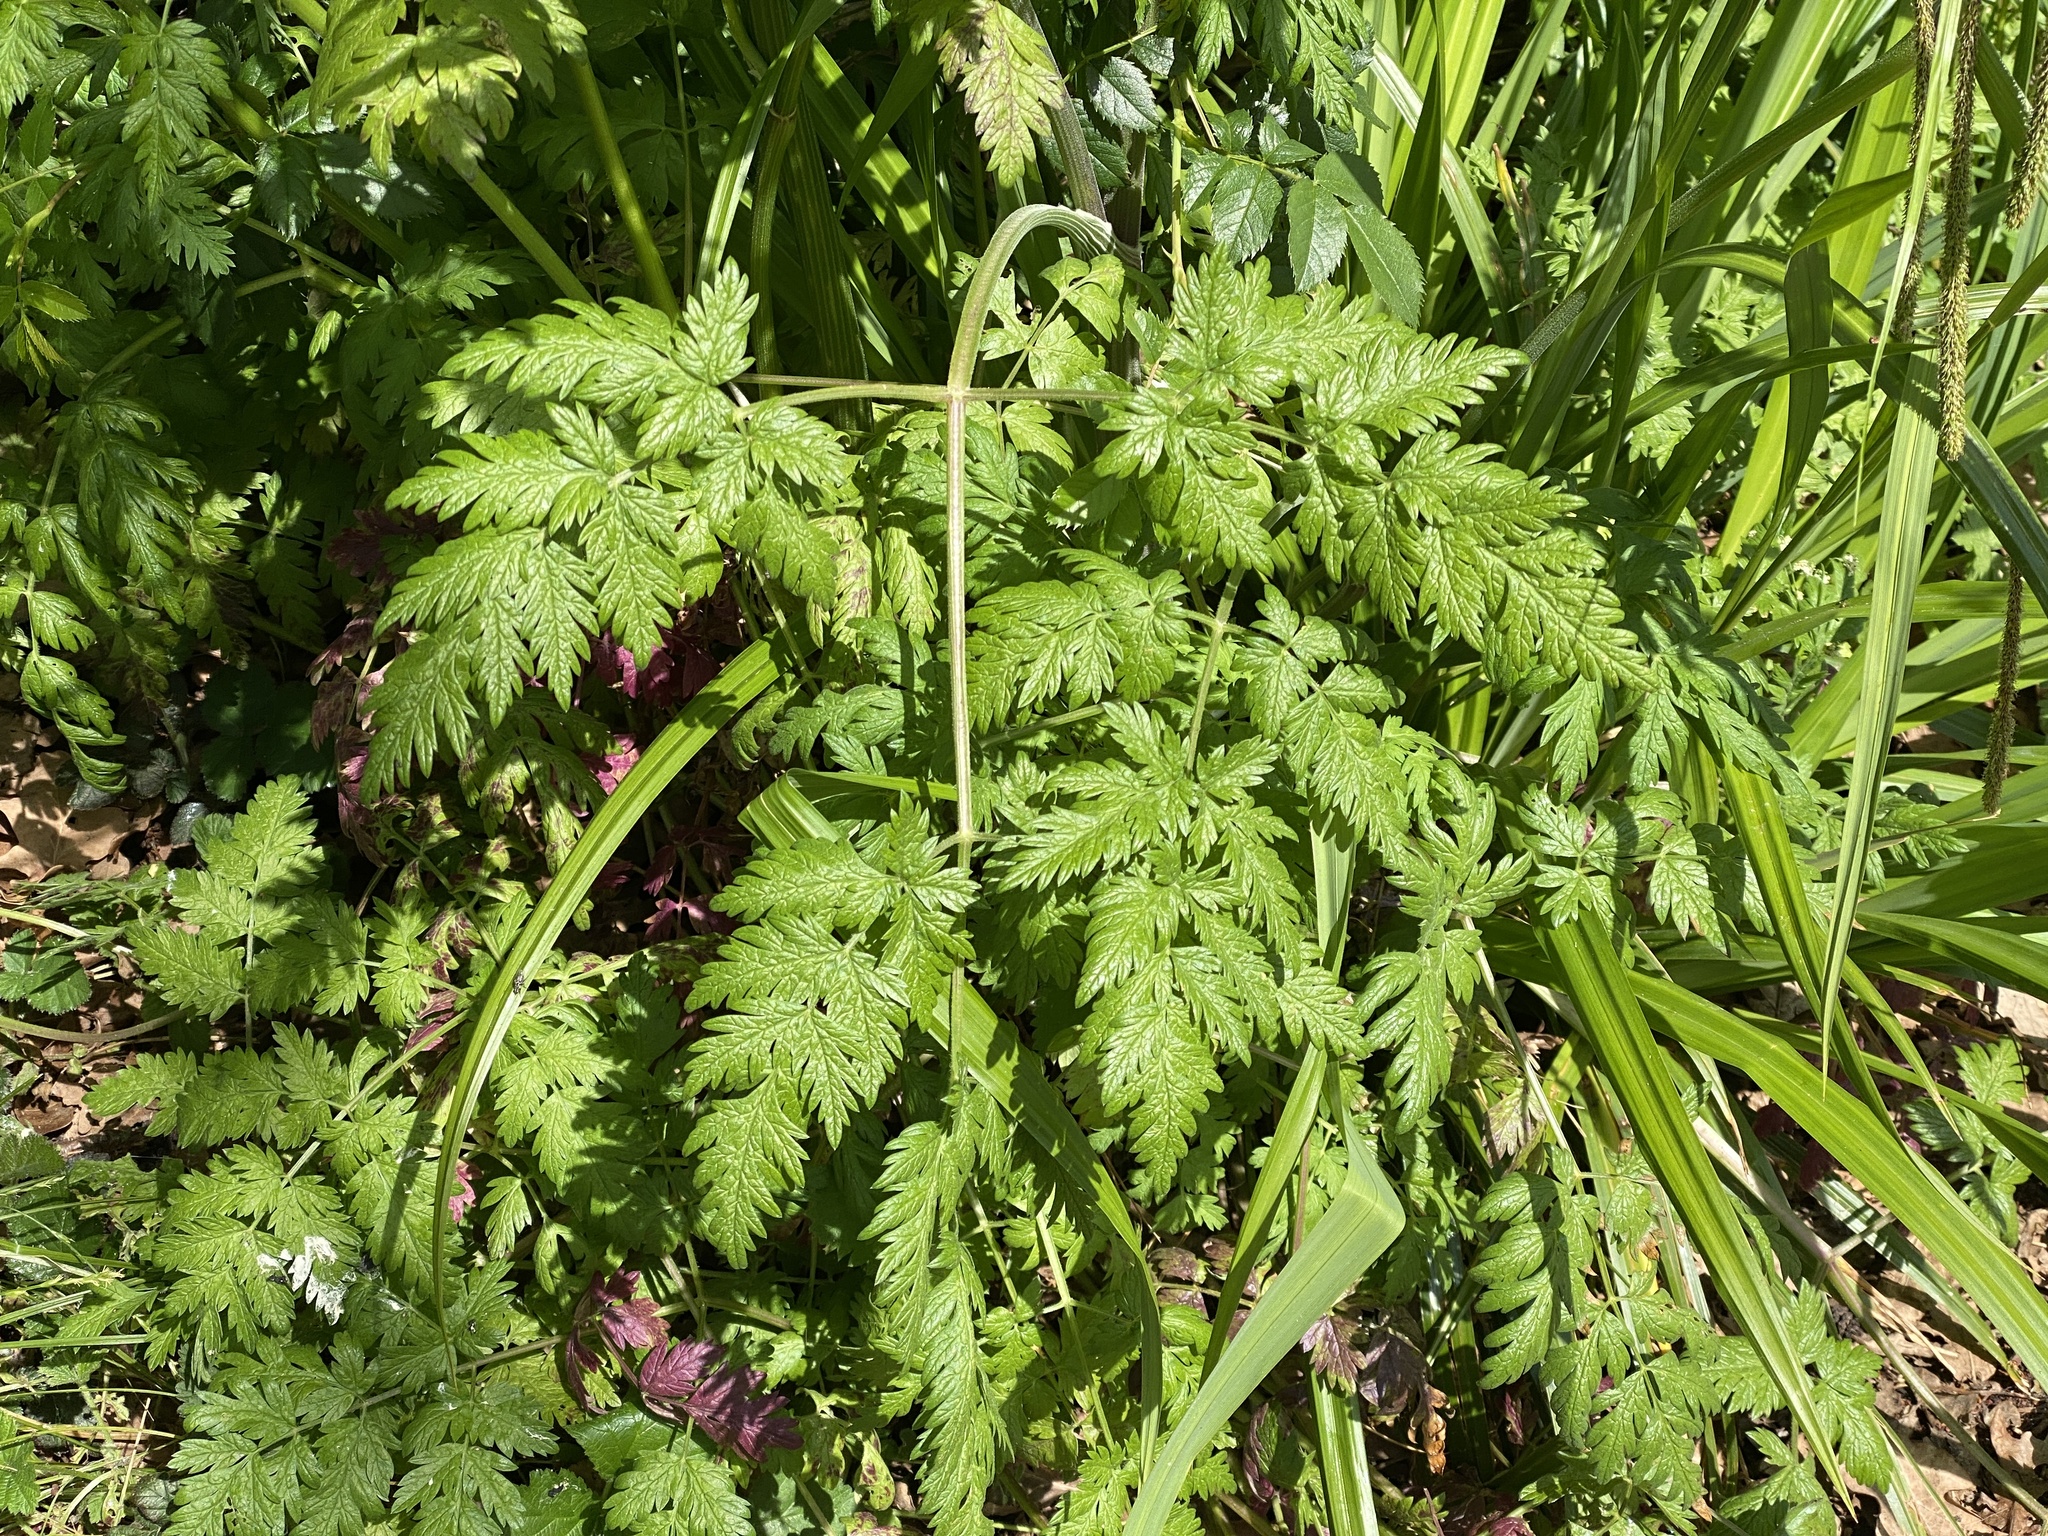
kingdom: Plantae
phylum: Tracheophyta
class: Magnoliopsida
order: Apiales
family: Apiaceae
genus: Anthriscus
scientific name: Anthriscus sylvestris
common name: Cow parsley
